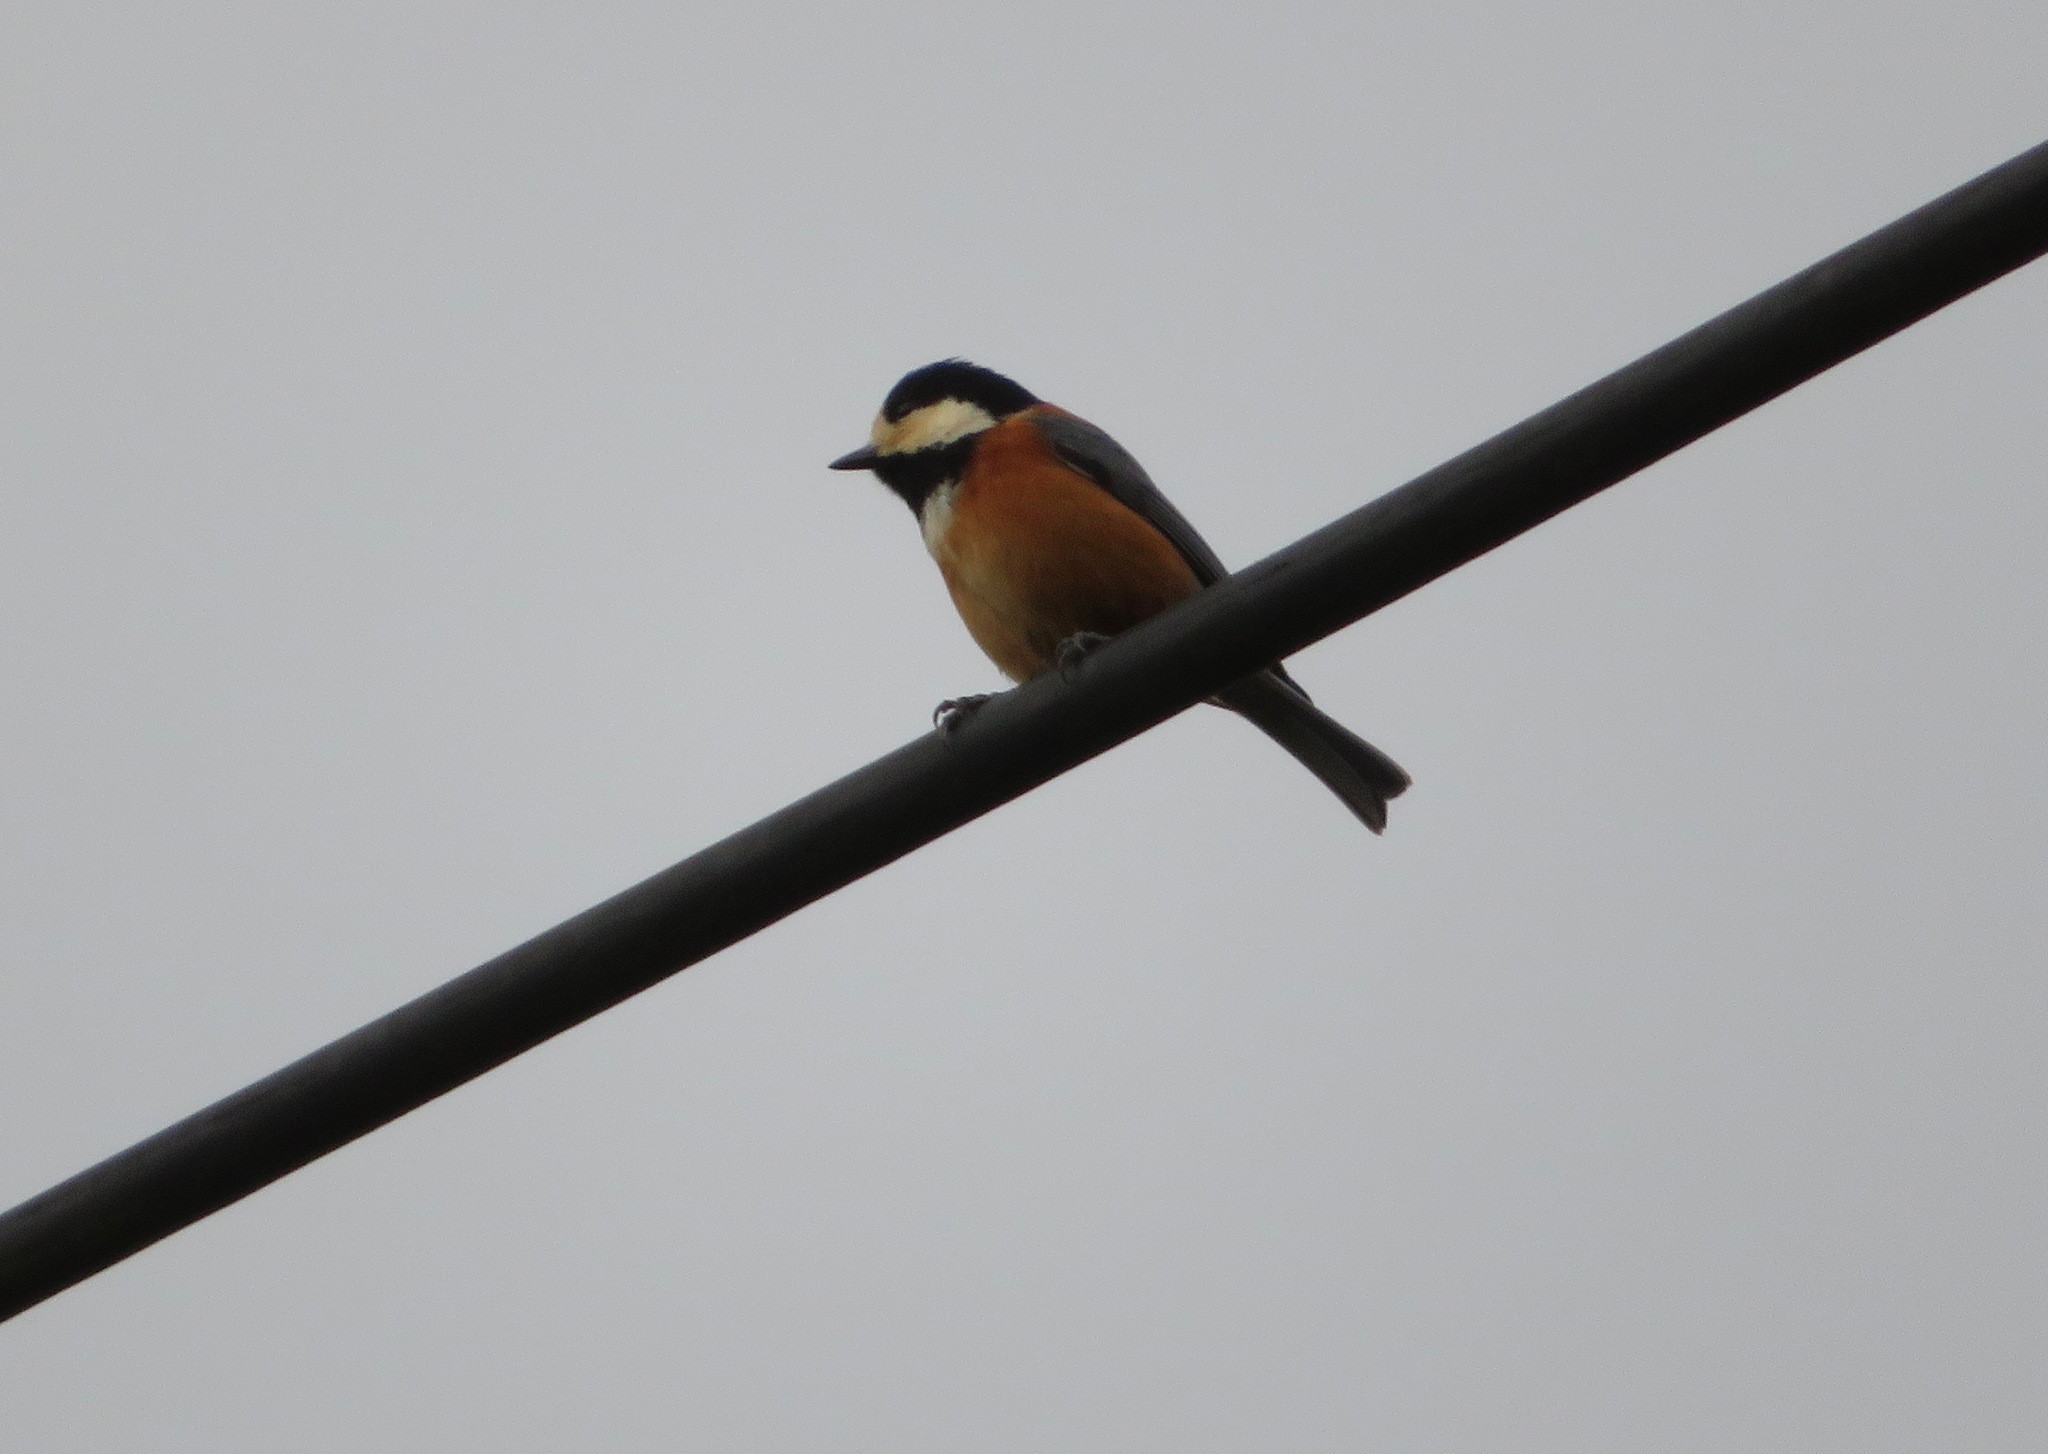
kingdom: Animalia
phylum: Chordata
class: Aves
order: Passeriformes
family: Paridae
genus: Poecile
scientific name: Poecile varius
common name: Varied tit
